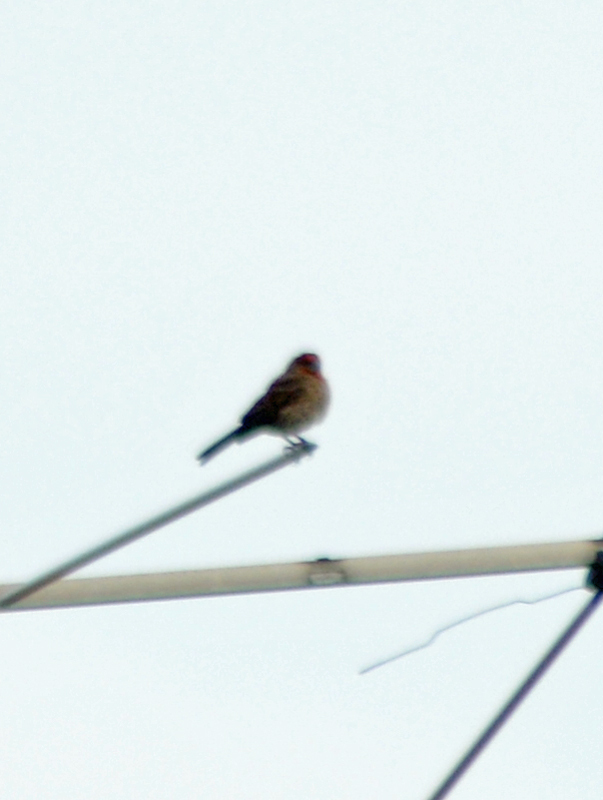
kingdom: Animalia
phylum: Chordata
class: Aves
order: Passeriformes
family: Fringillidae
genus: Haemorhous
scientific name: Haemorhous mexicanus
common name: House finch
